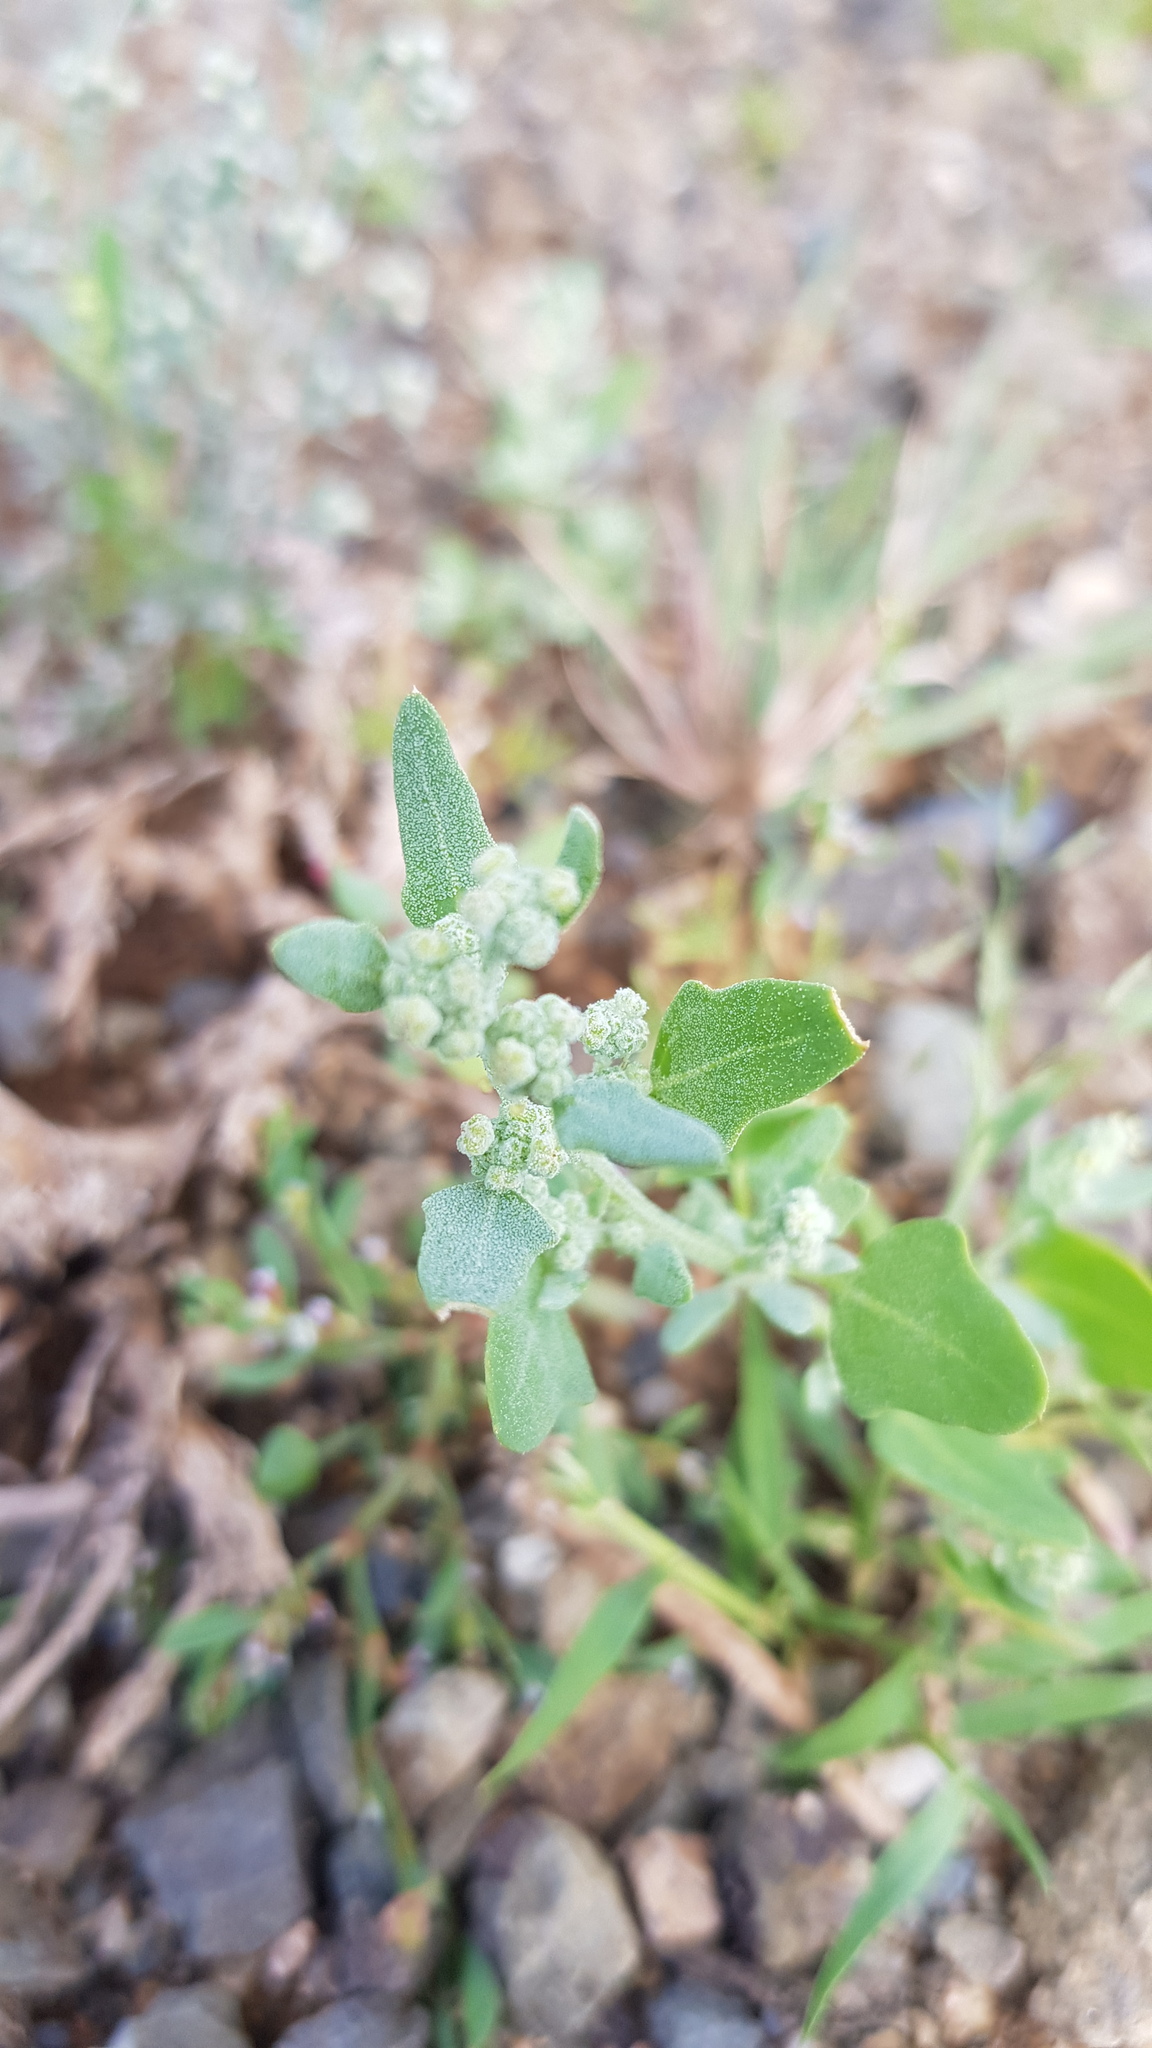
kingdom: Plantae
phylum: Tracheophyta
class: Magnoliopsida
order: Caryophyllales
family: Amaranthaceae
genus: Chenopodium
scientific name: Chenopodium karoi
